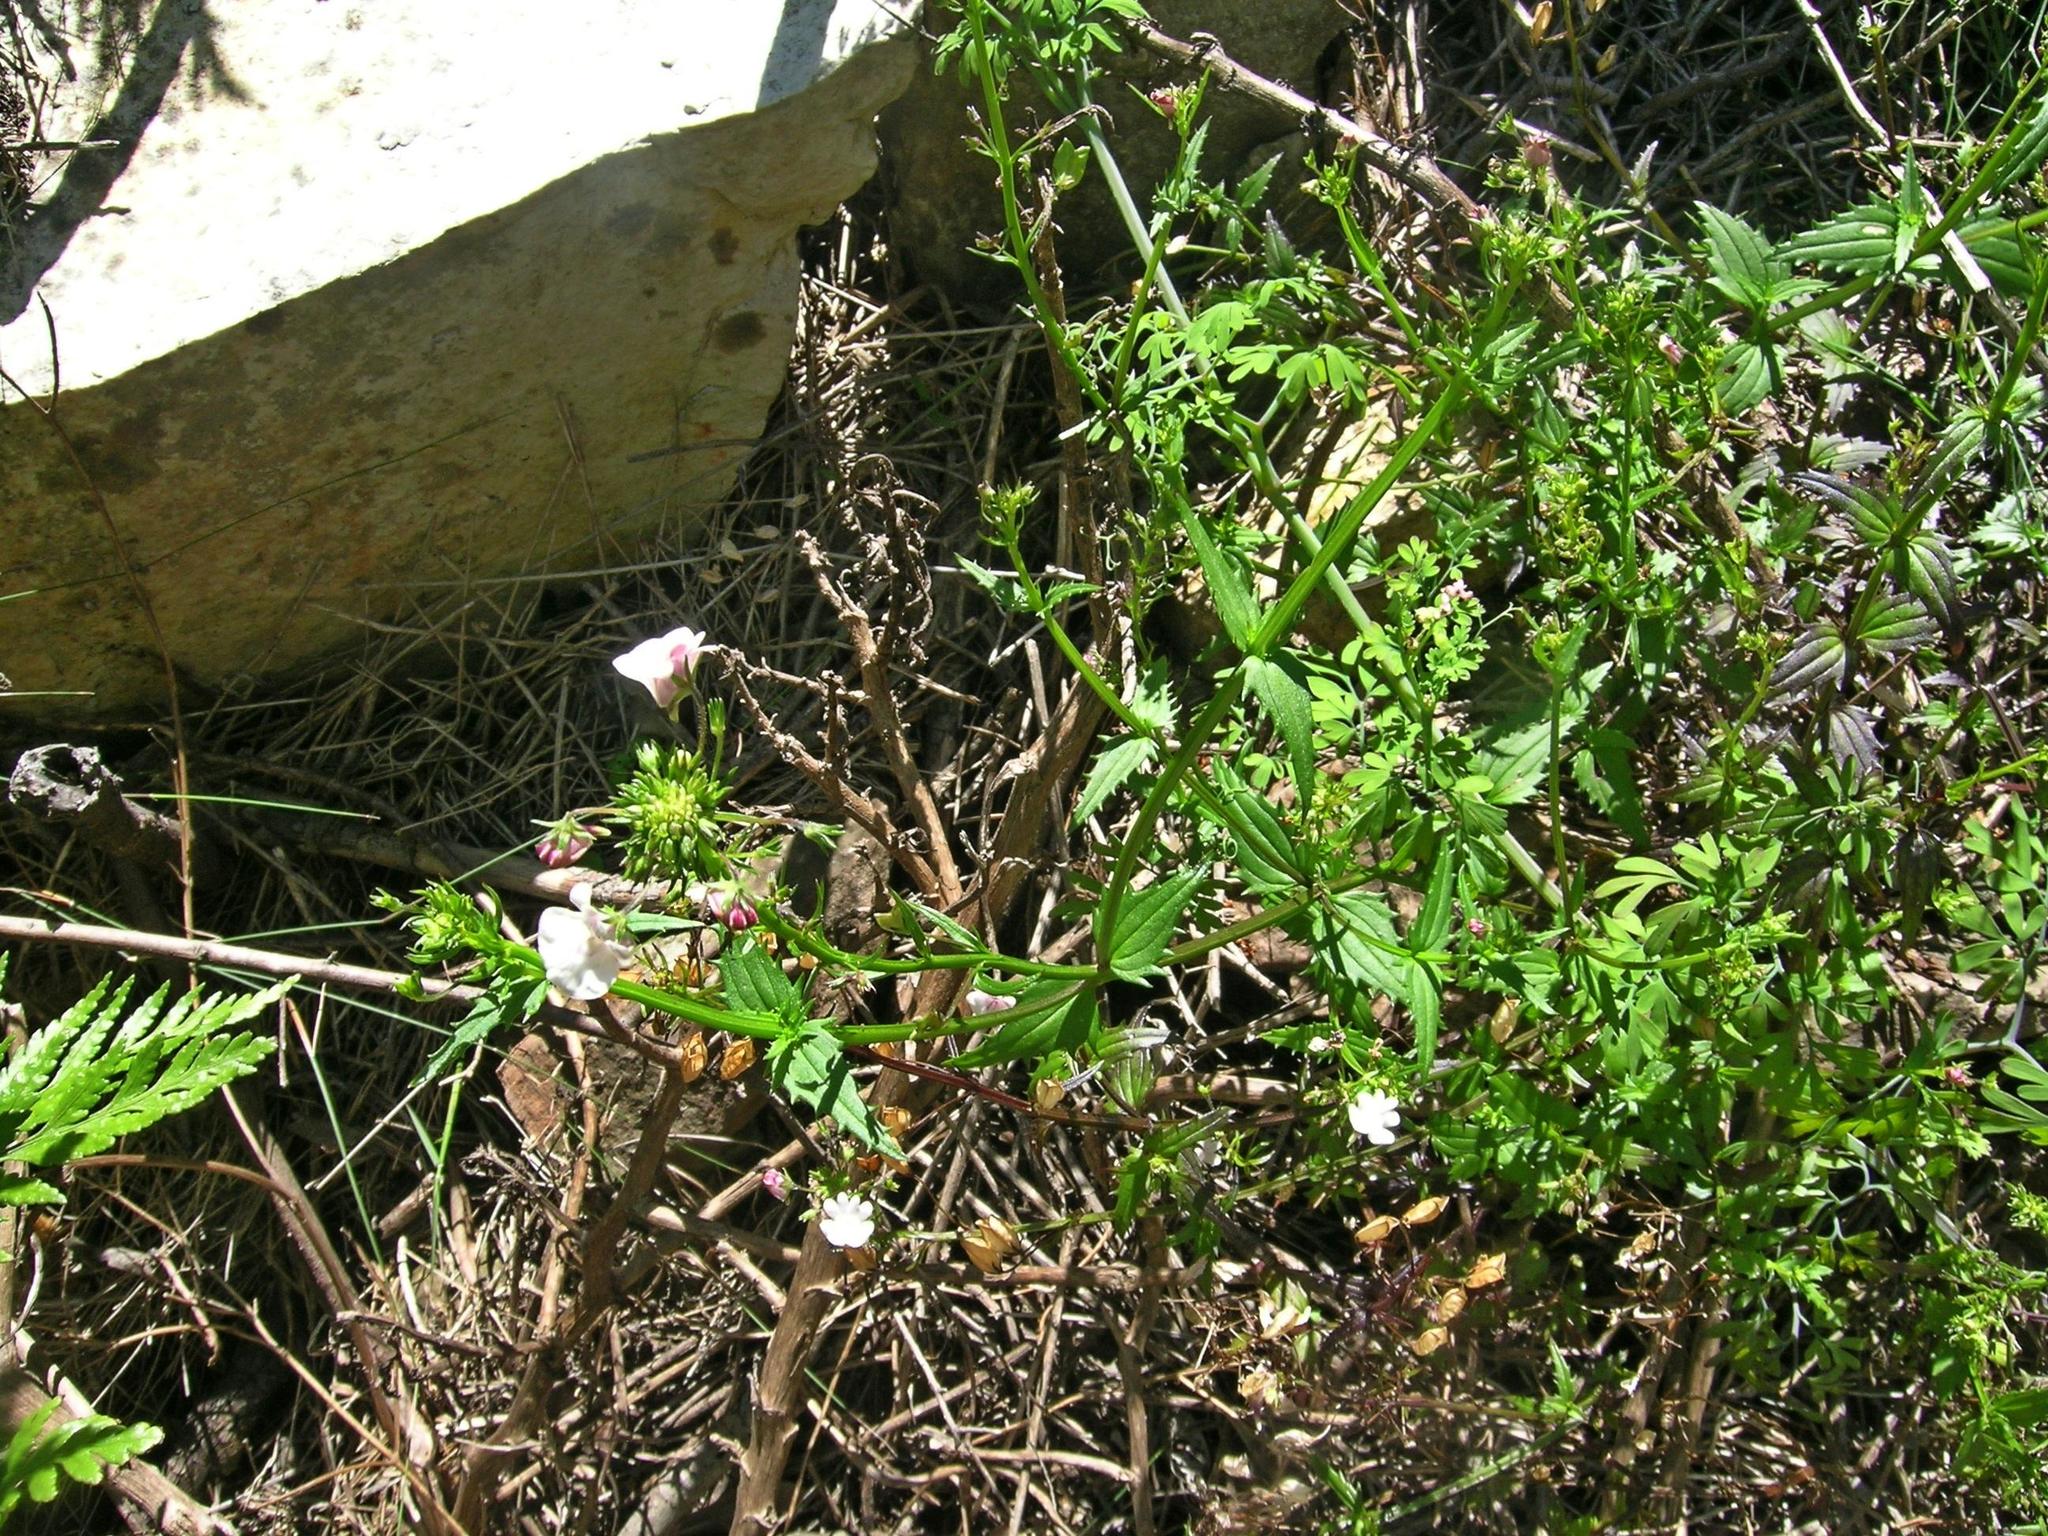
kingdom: Plantae
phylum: Tracheophyta
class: Magnoliopsida
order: Lamiales
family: Scrophulariaceae
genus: Nemesia
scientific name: Nemesia elata
